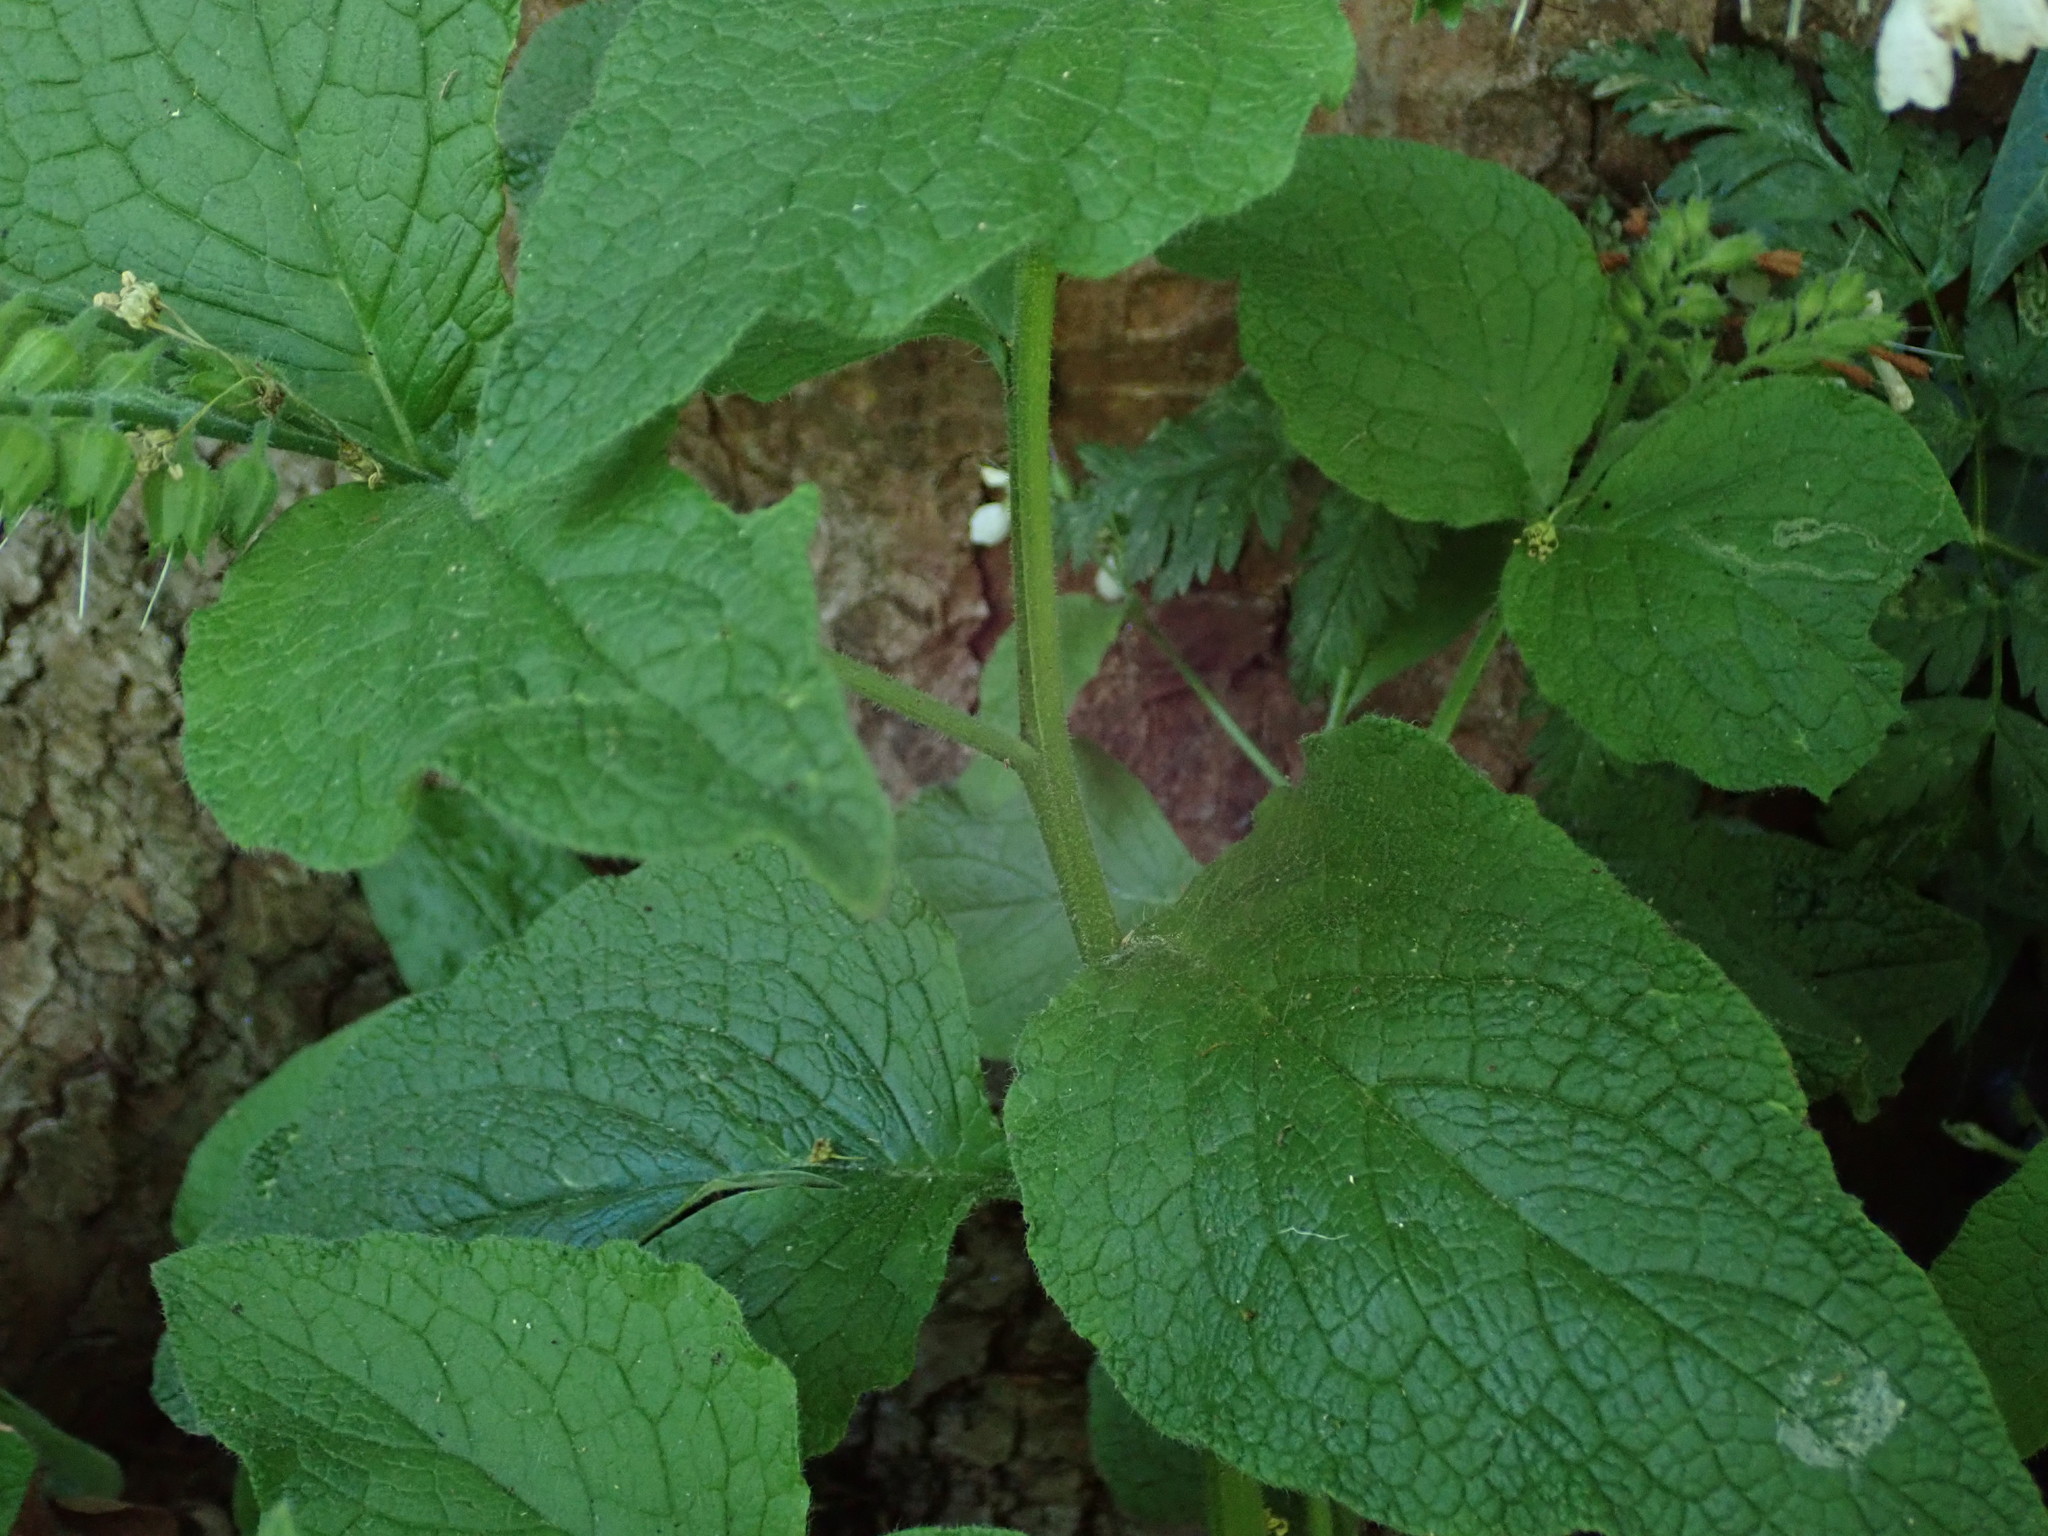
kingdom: Plantae
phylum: Tracheophyta
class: Magnoliopsida
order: Boraginales
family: Boraginaceae
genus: Symphytum
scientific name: Symphytum orientale
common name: White comfrey
